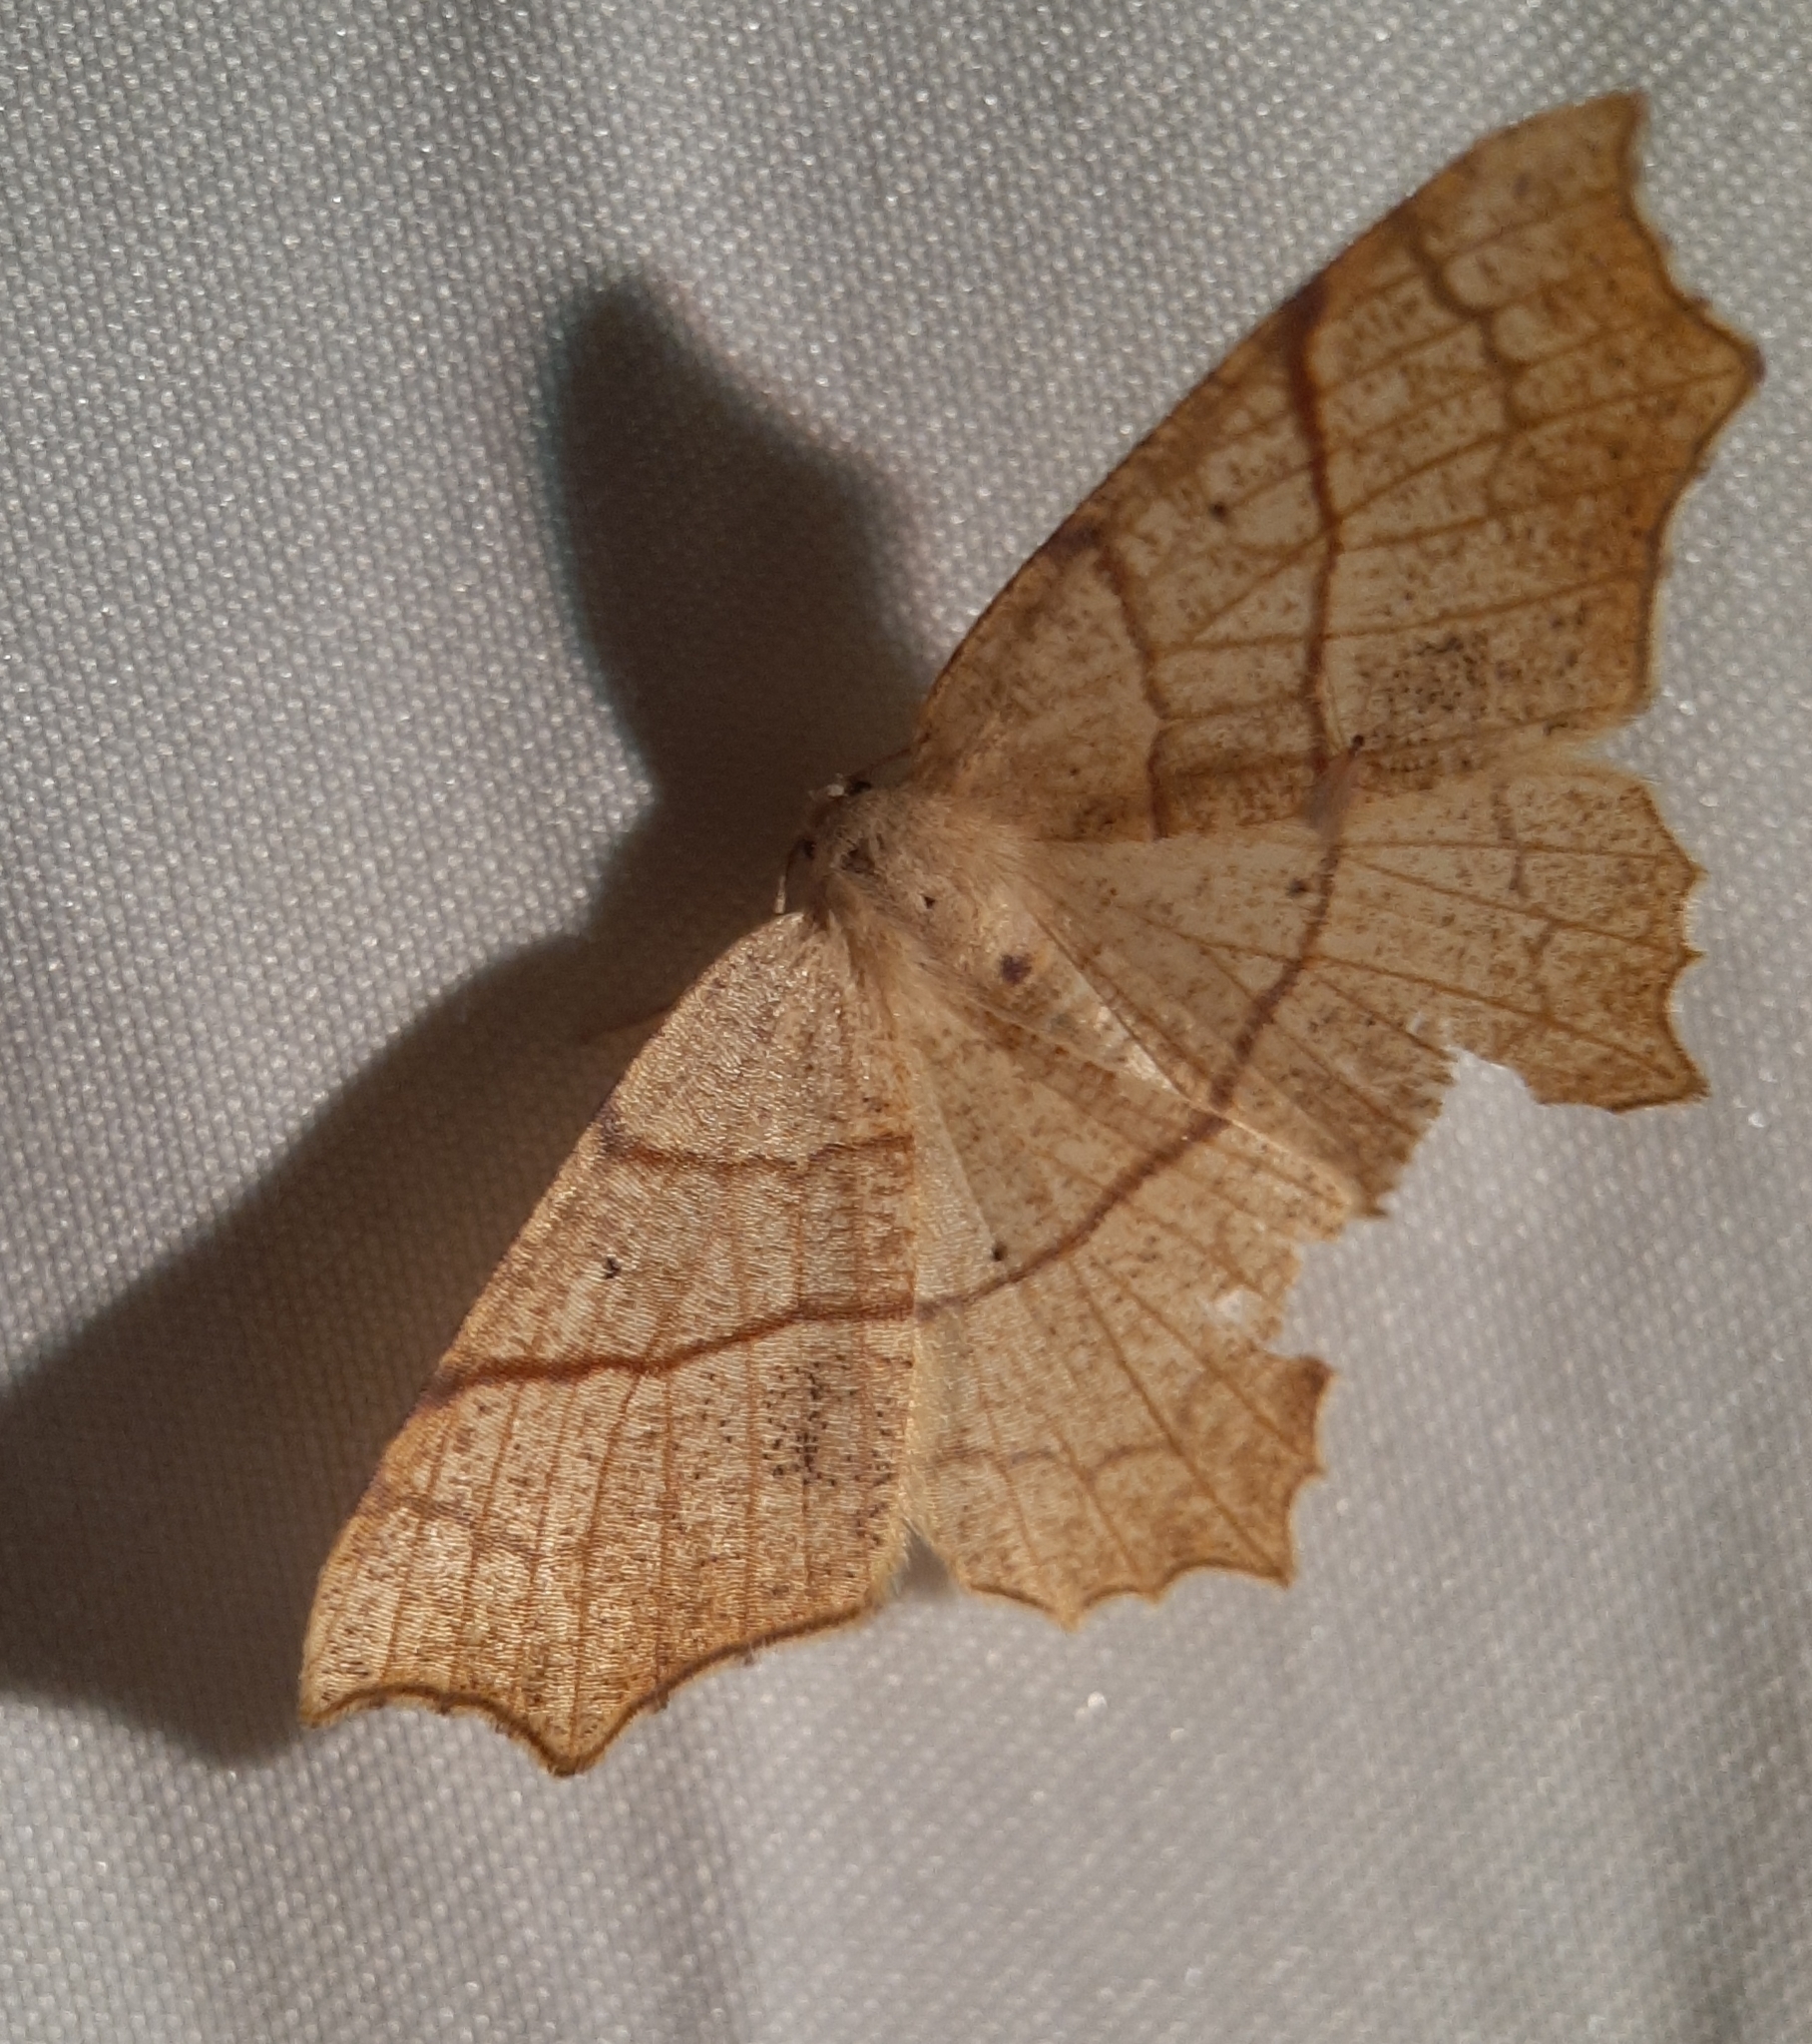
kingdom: Animalia
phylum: Arthropoda
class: Insecta
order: Lepidoptera
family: Geometridae
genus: Besma
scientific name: Besma quercivoraria
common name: Oak besma
